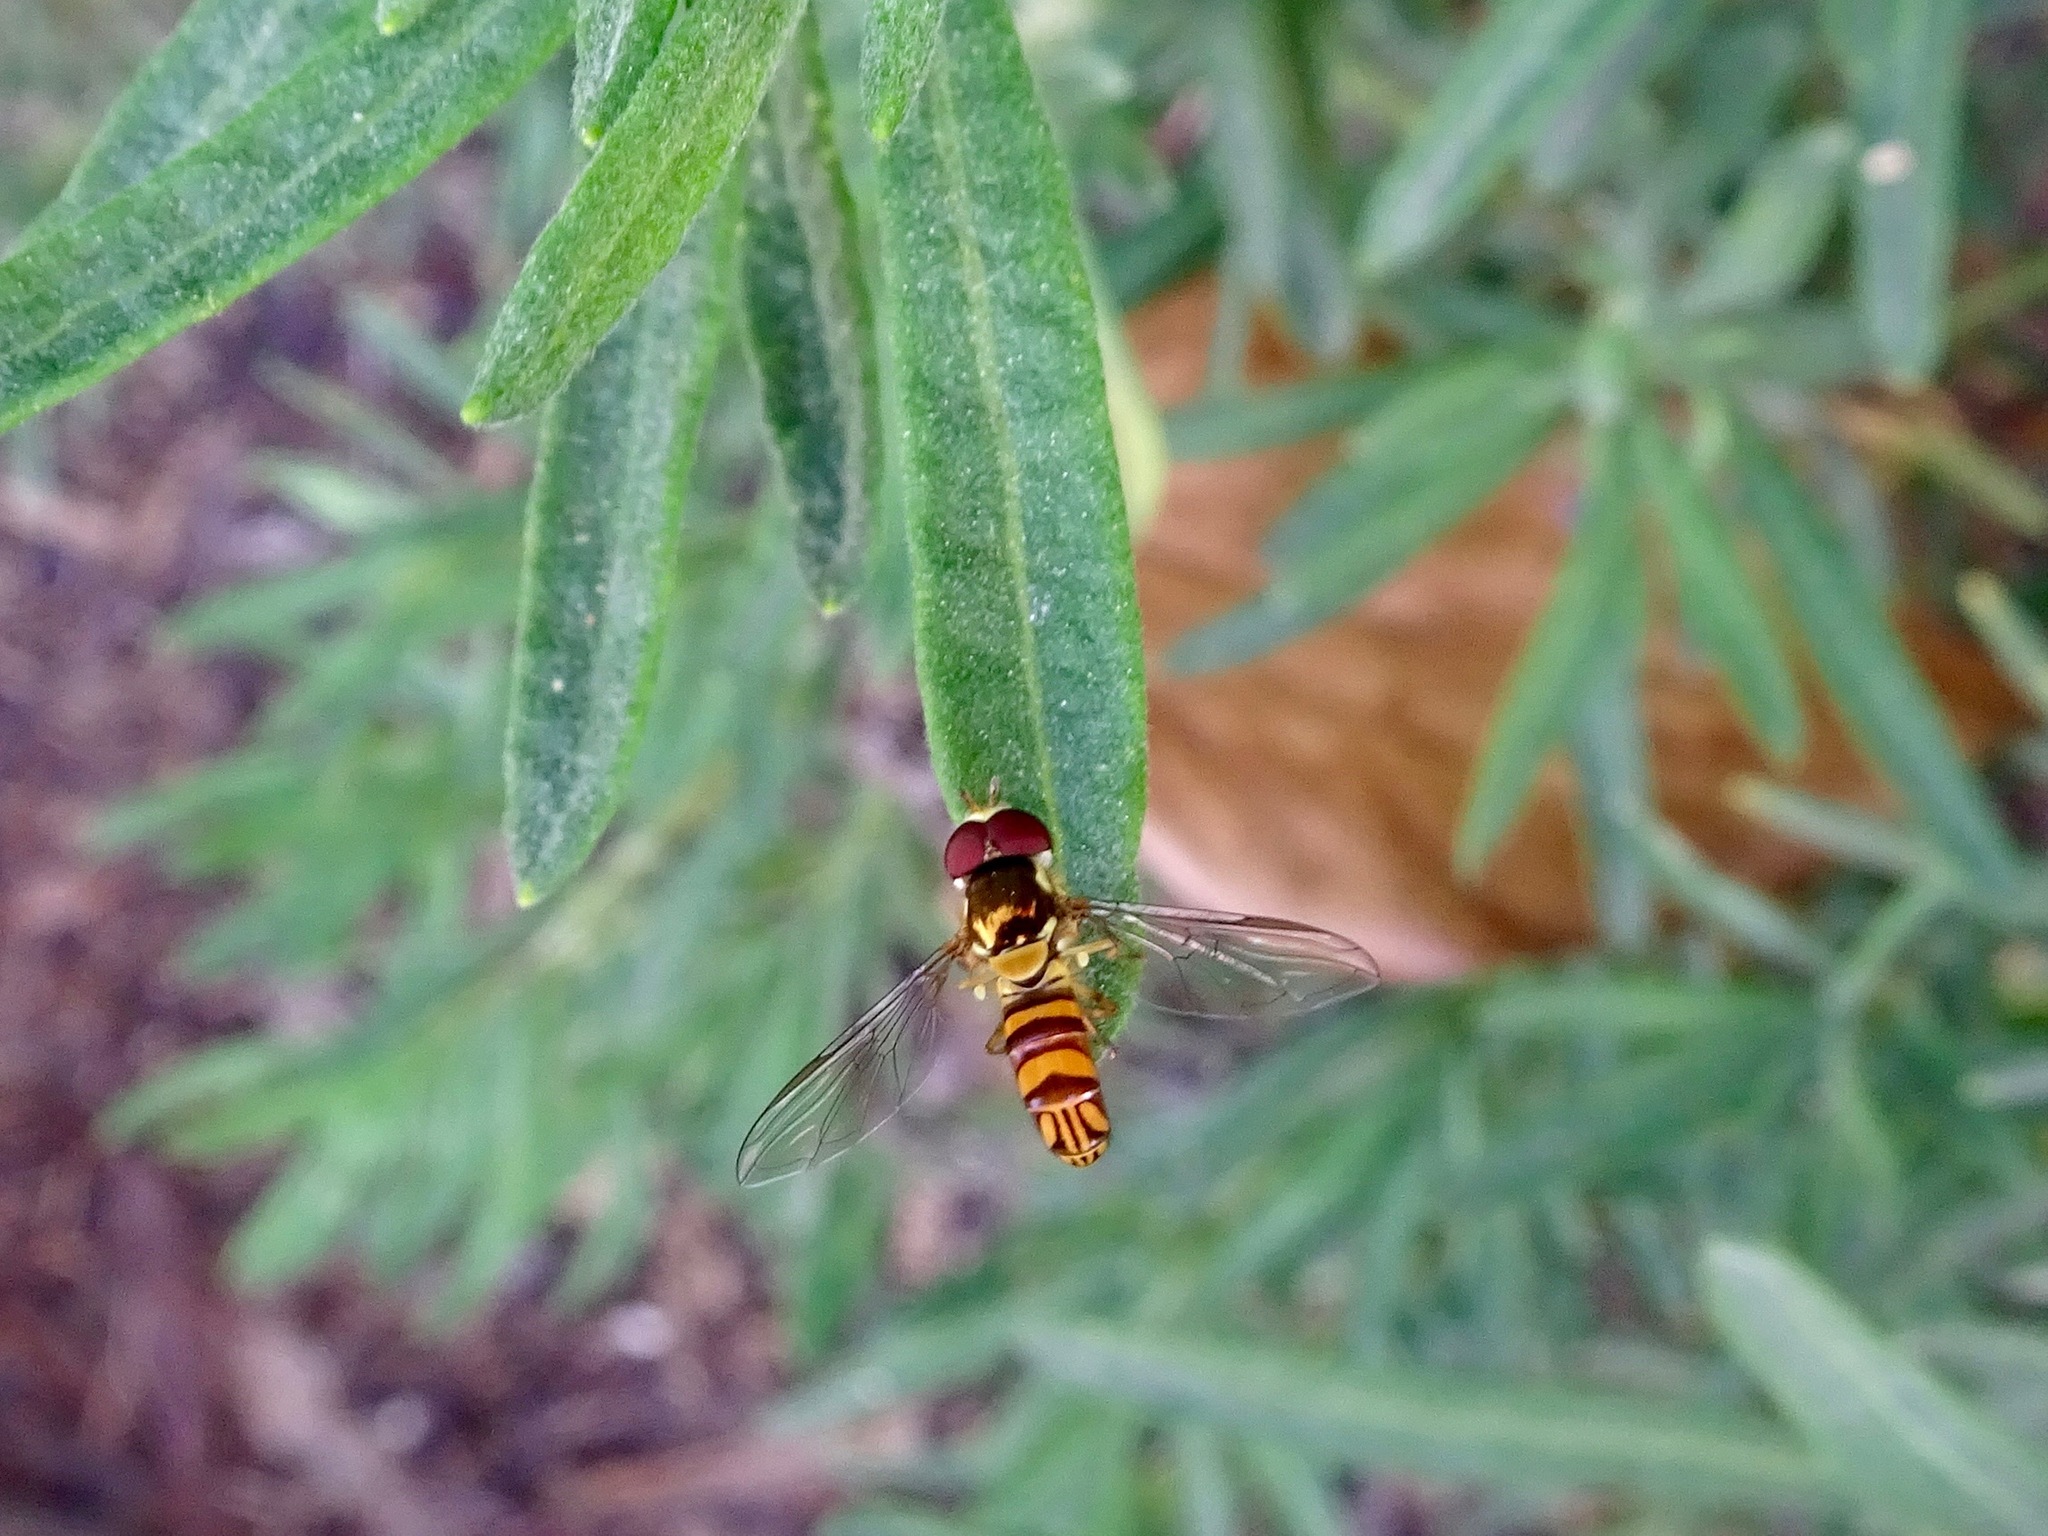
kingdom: Animalia
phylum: Arthropoda
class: Insecta
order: Diptera
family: Syrphidae
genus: Allograpta
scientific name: Allograpta obliqua
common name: Common oblique syrphid
